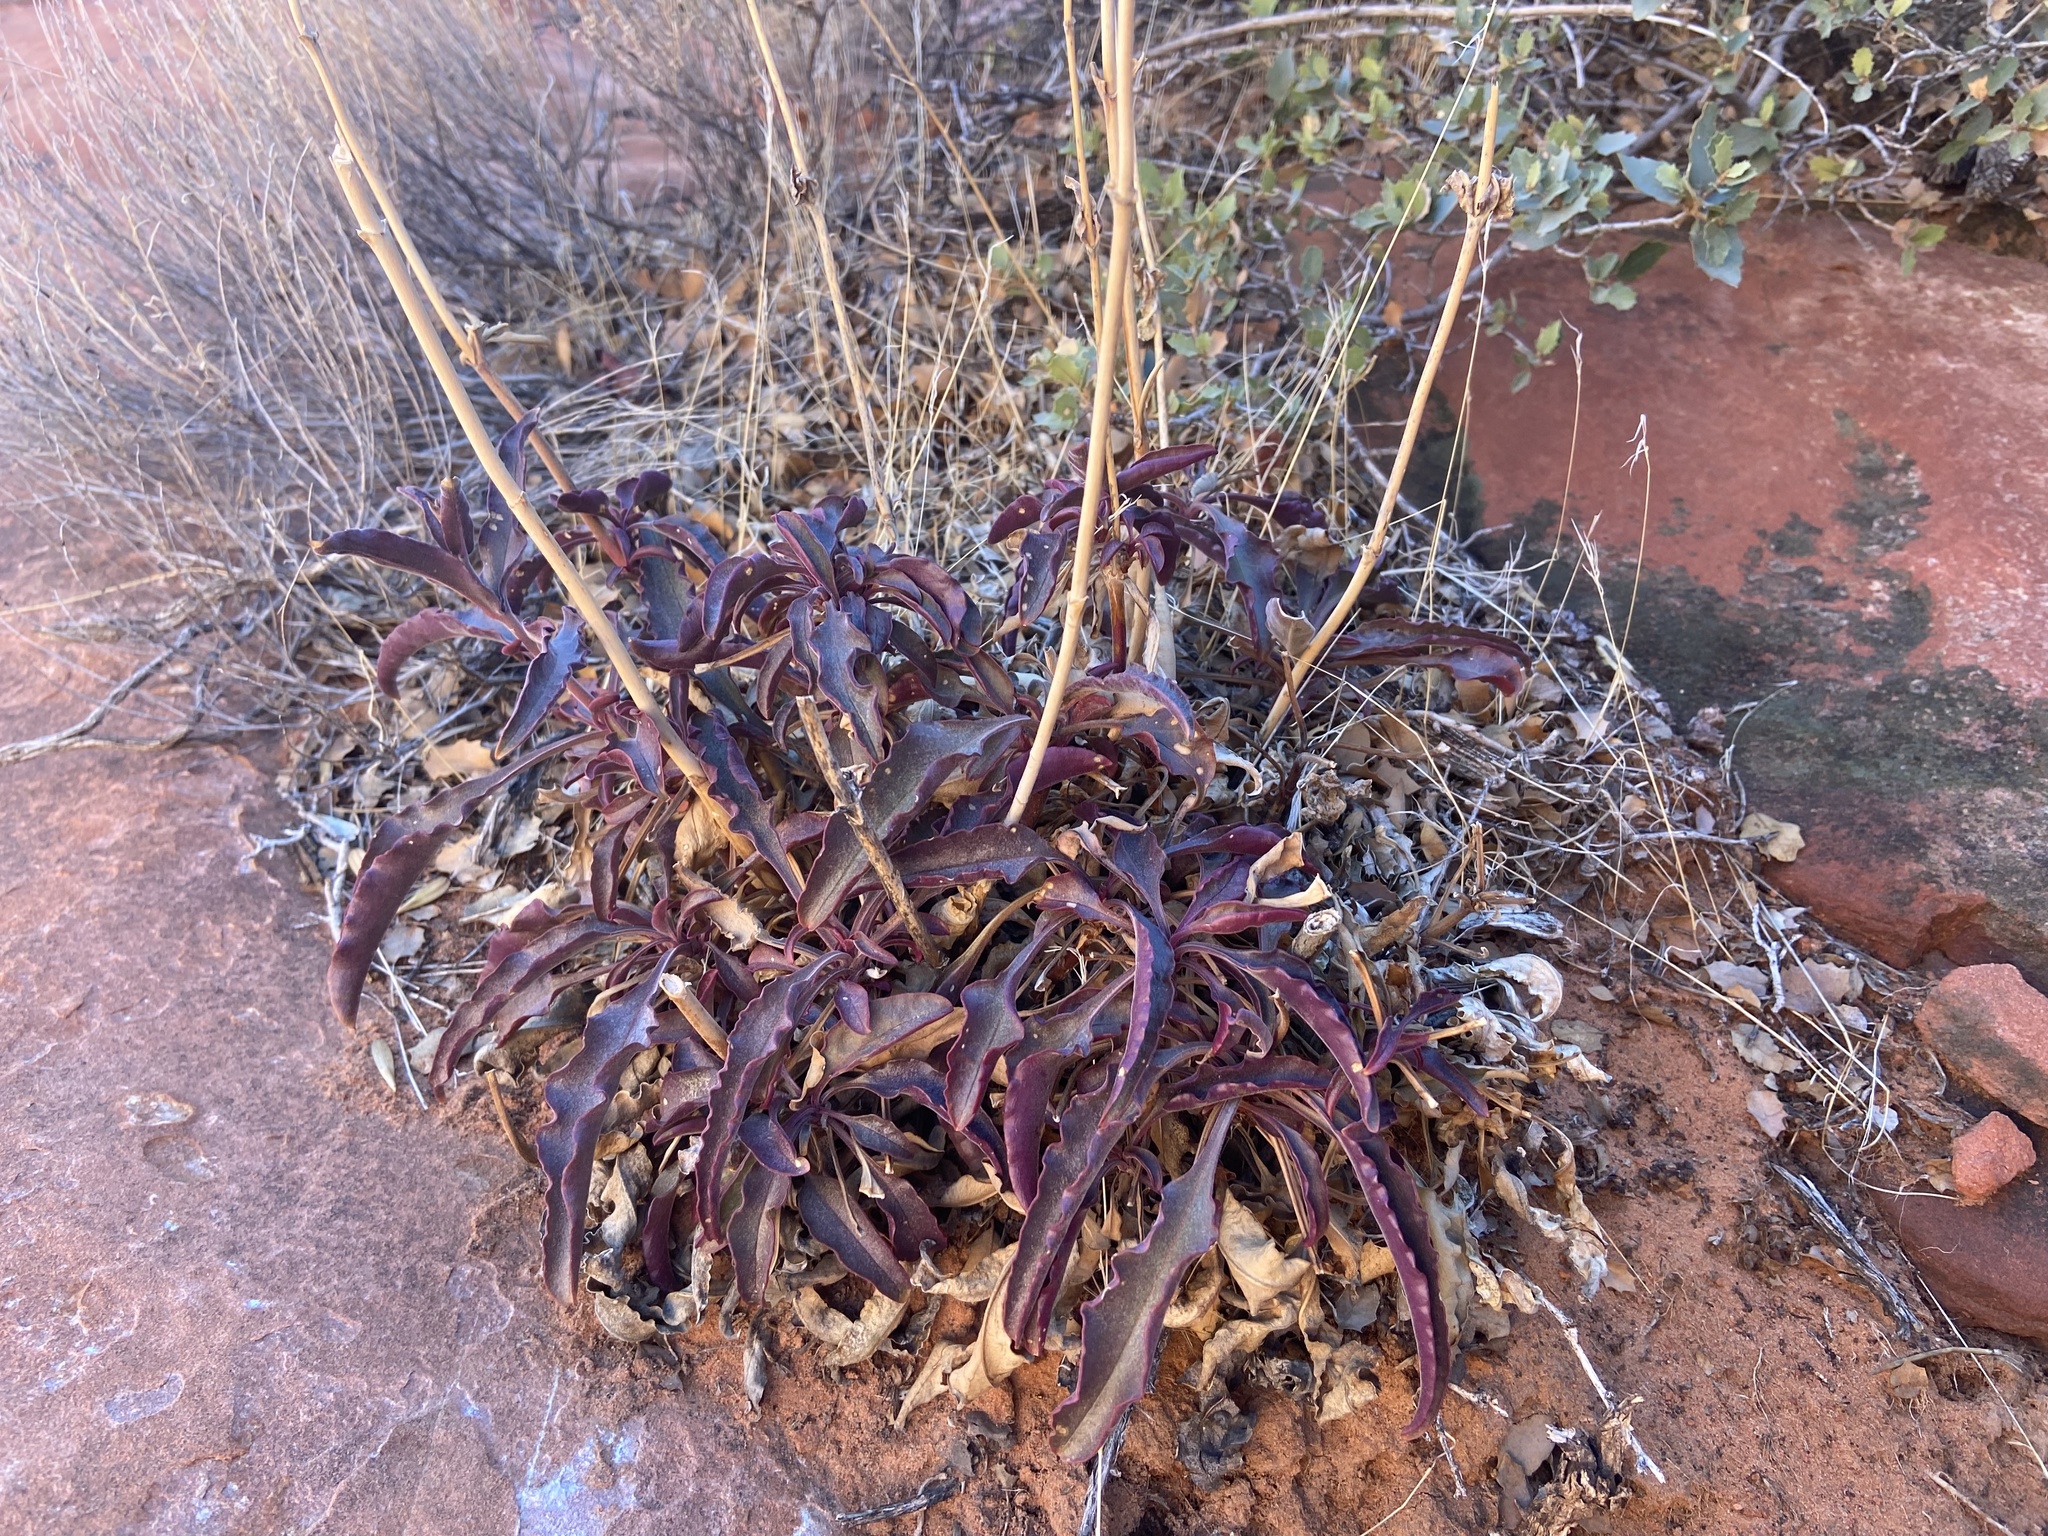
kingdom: Plantae
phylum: Tracheophyta
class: Magnoliopsida
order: Lamiales
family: Plantaginaceae
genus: Penstemon
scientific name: Penstemon eatonii
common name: Eaton's penstemon
